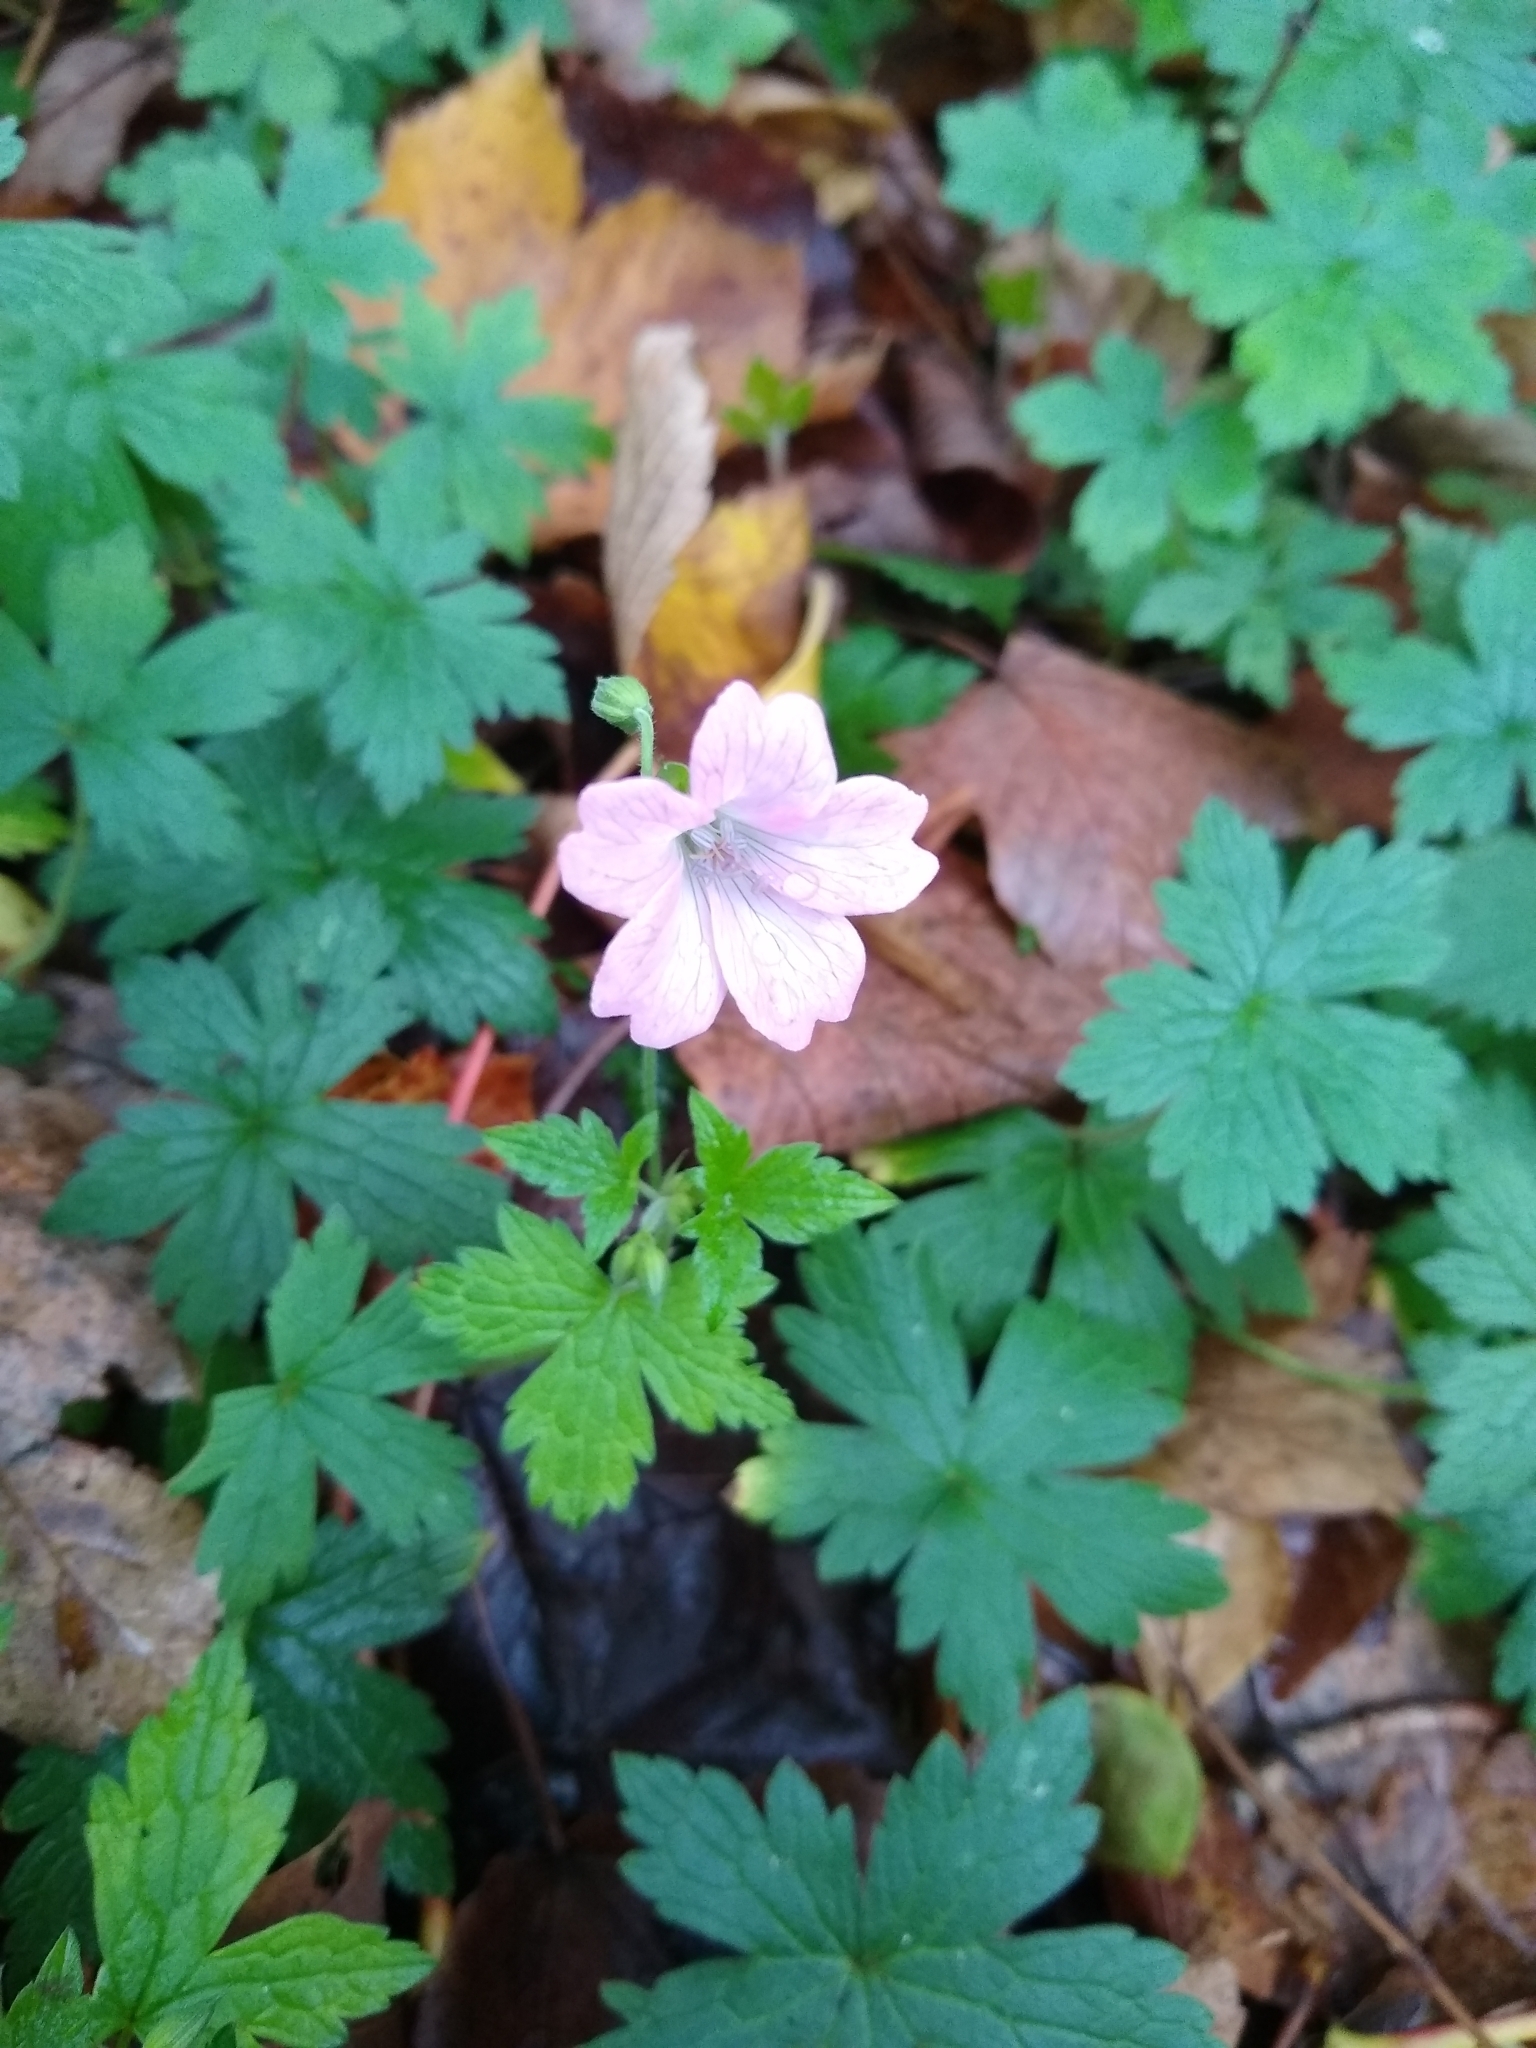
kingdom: Plantae
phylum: Tracheophyta
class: Magnoliopsida
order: Geraniales
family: Geraniaceae
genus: Geranium
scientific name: Geranium oxonianum
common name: Druce's crane's-bill
